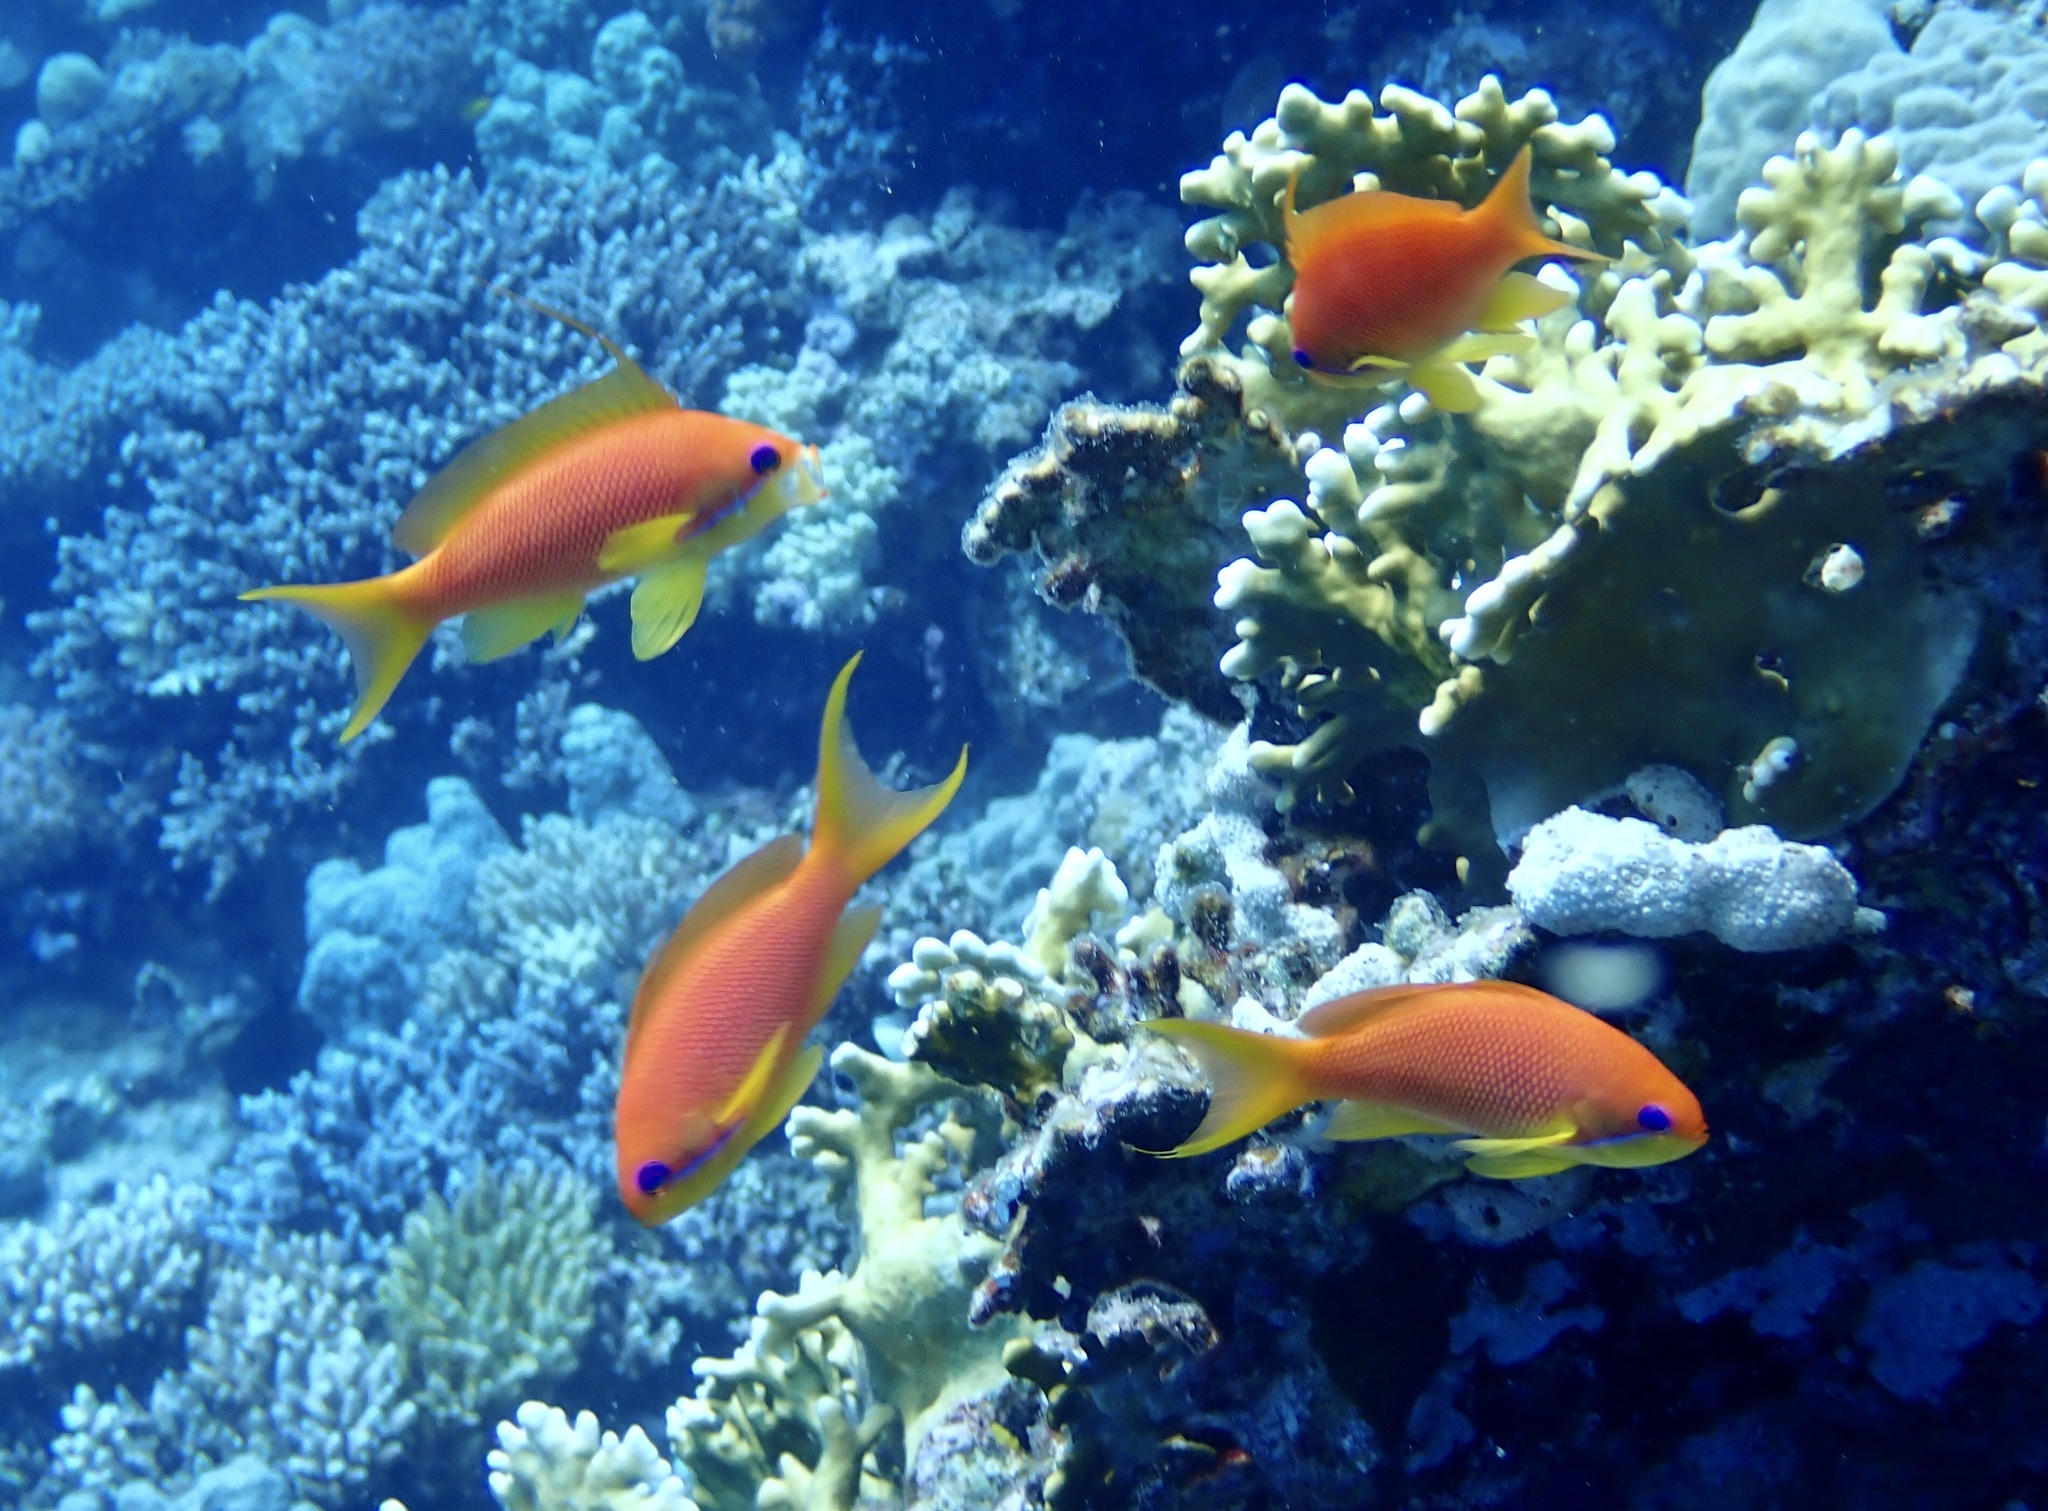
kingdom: Animalia
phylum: Chordata
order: Perciformes
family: Serranidae
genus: Pseudanthias
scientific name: Pseudanthias squamipinnis
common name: Scalefin anthias
